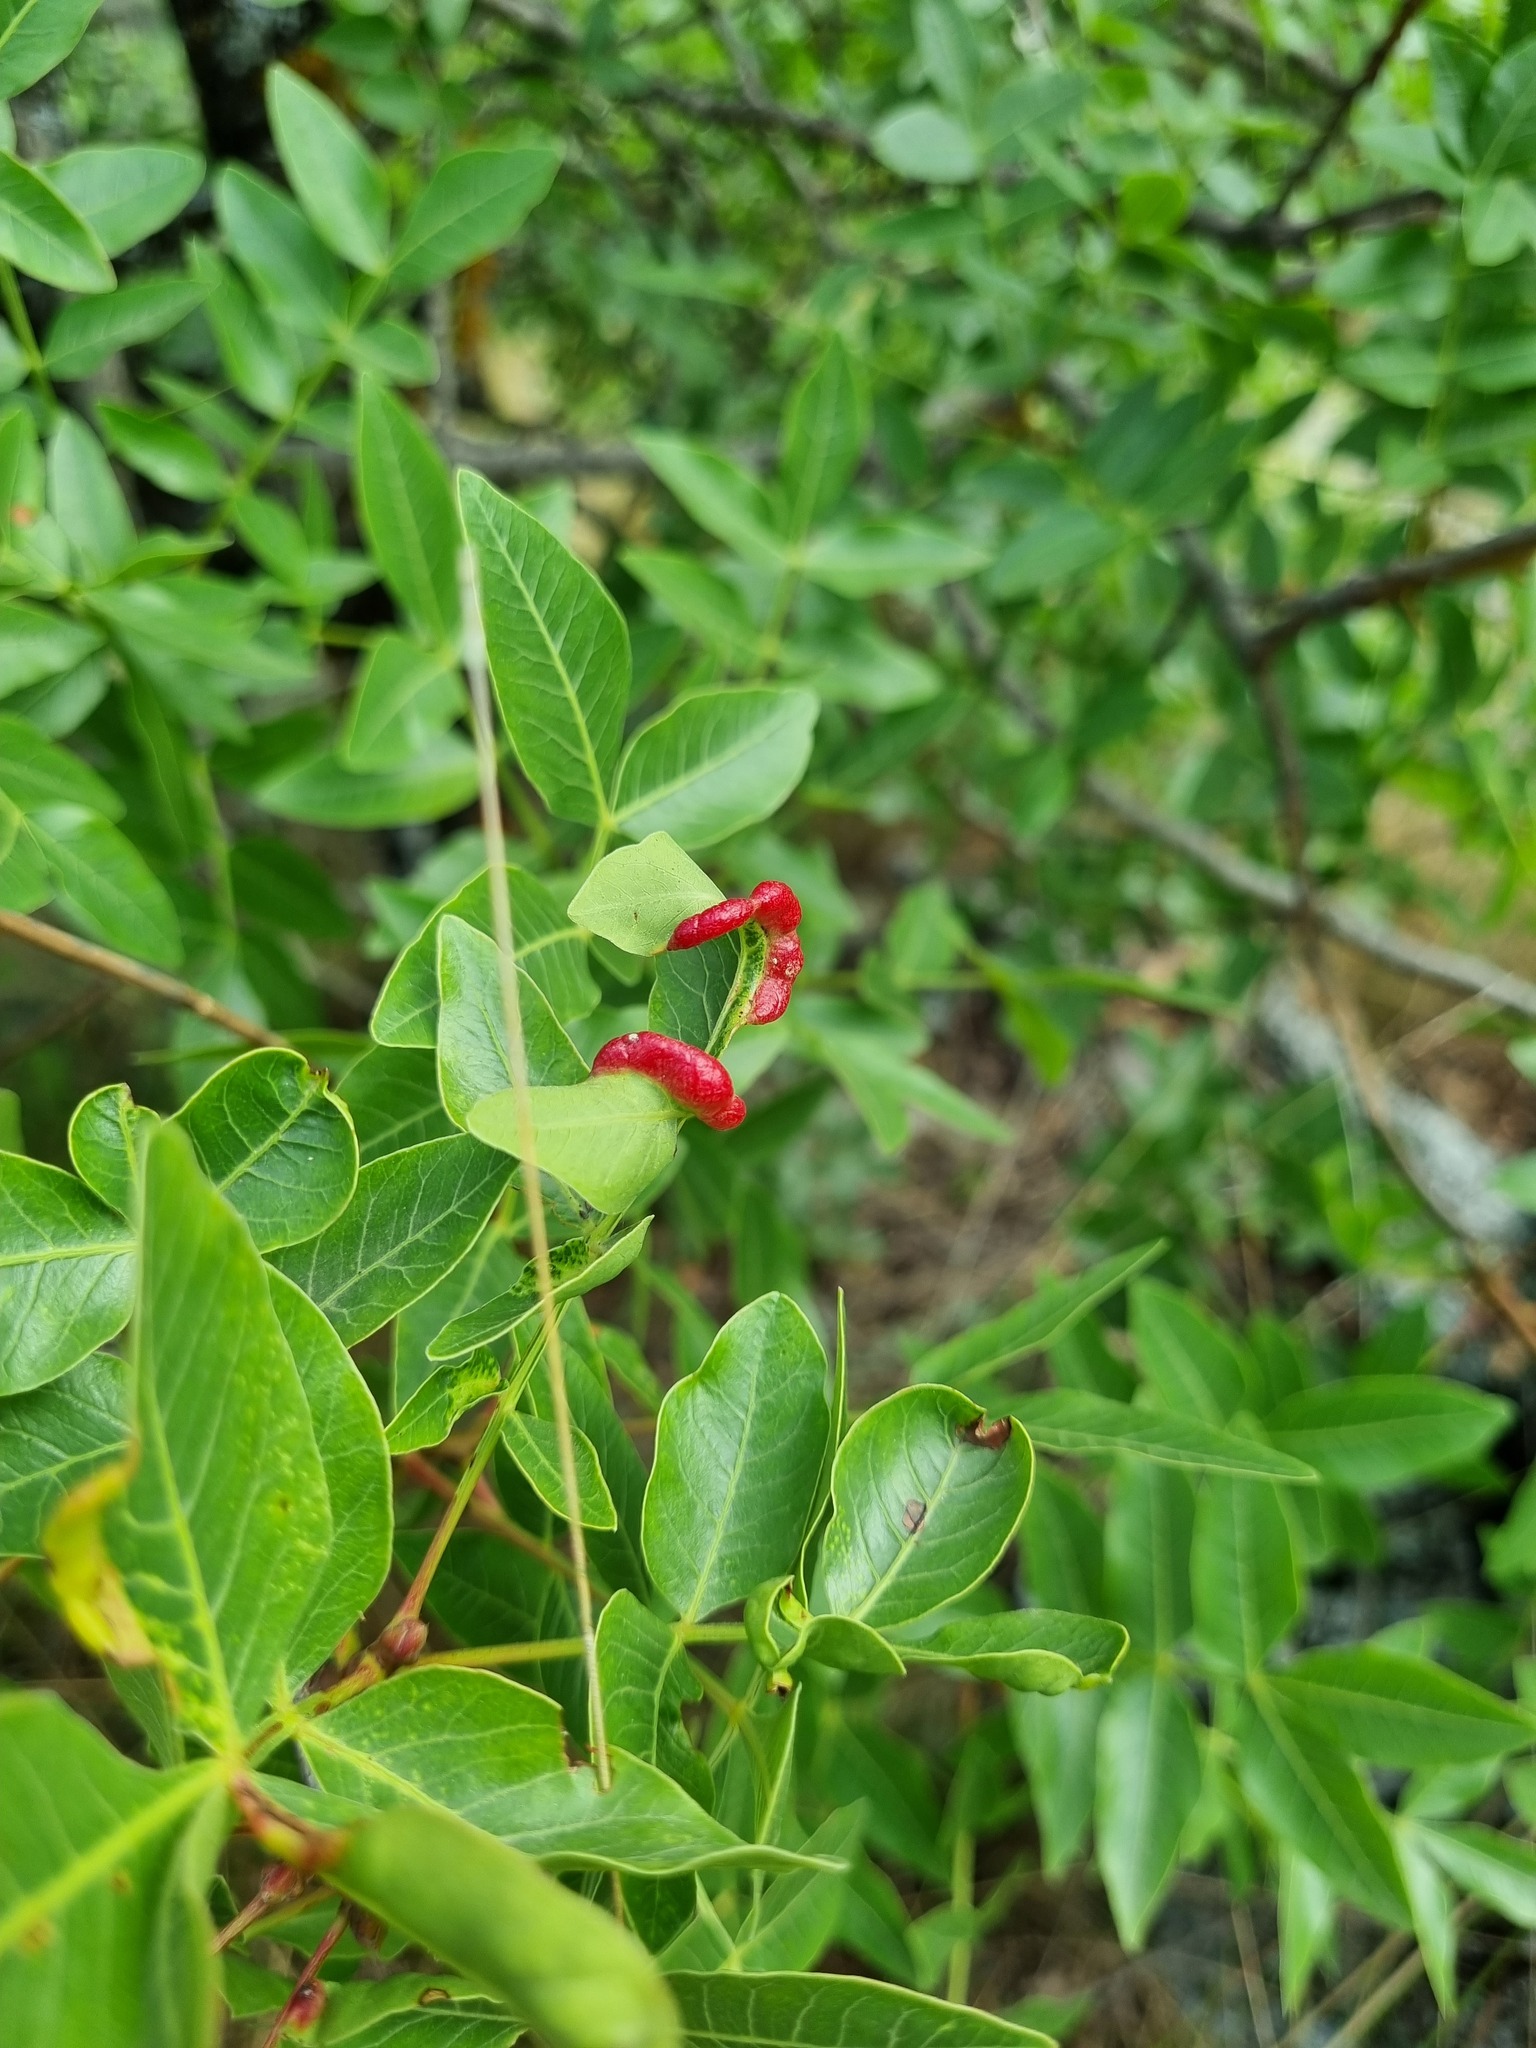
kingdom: Plantae
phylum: Tracheophyta
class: Magnoliopsida
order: Sapindales
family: Anacardiaceae
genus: Pistacia
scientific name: Pistacia atlantica
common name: Mt. atlas mastic tree
